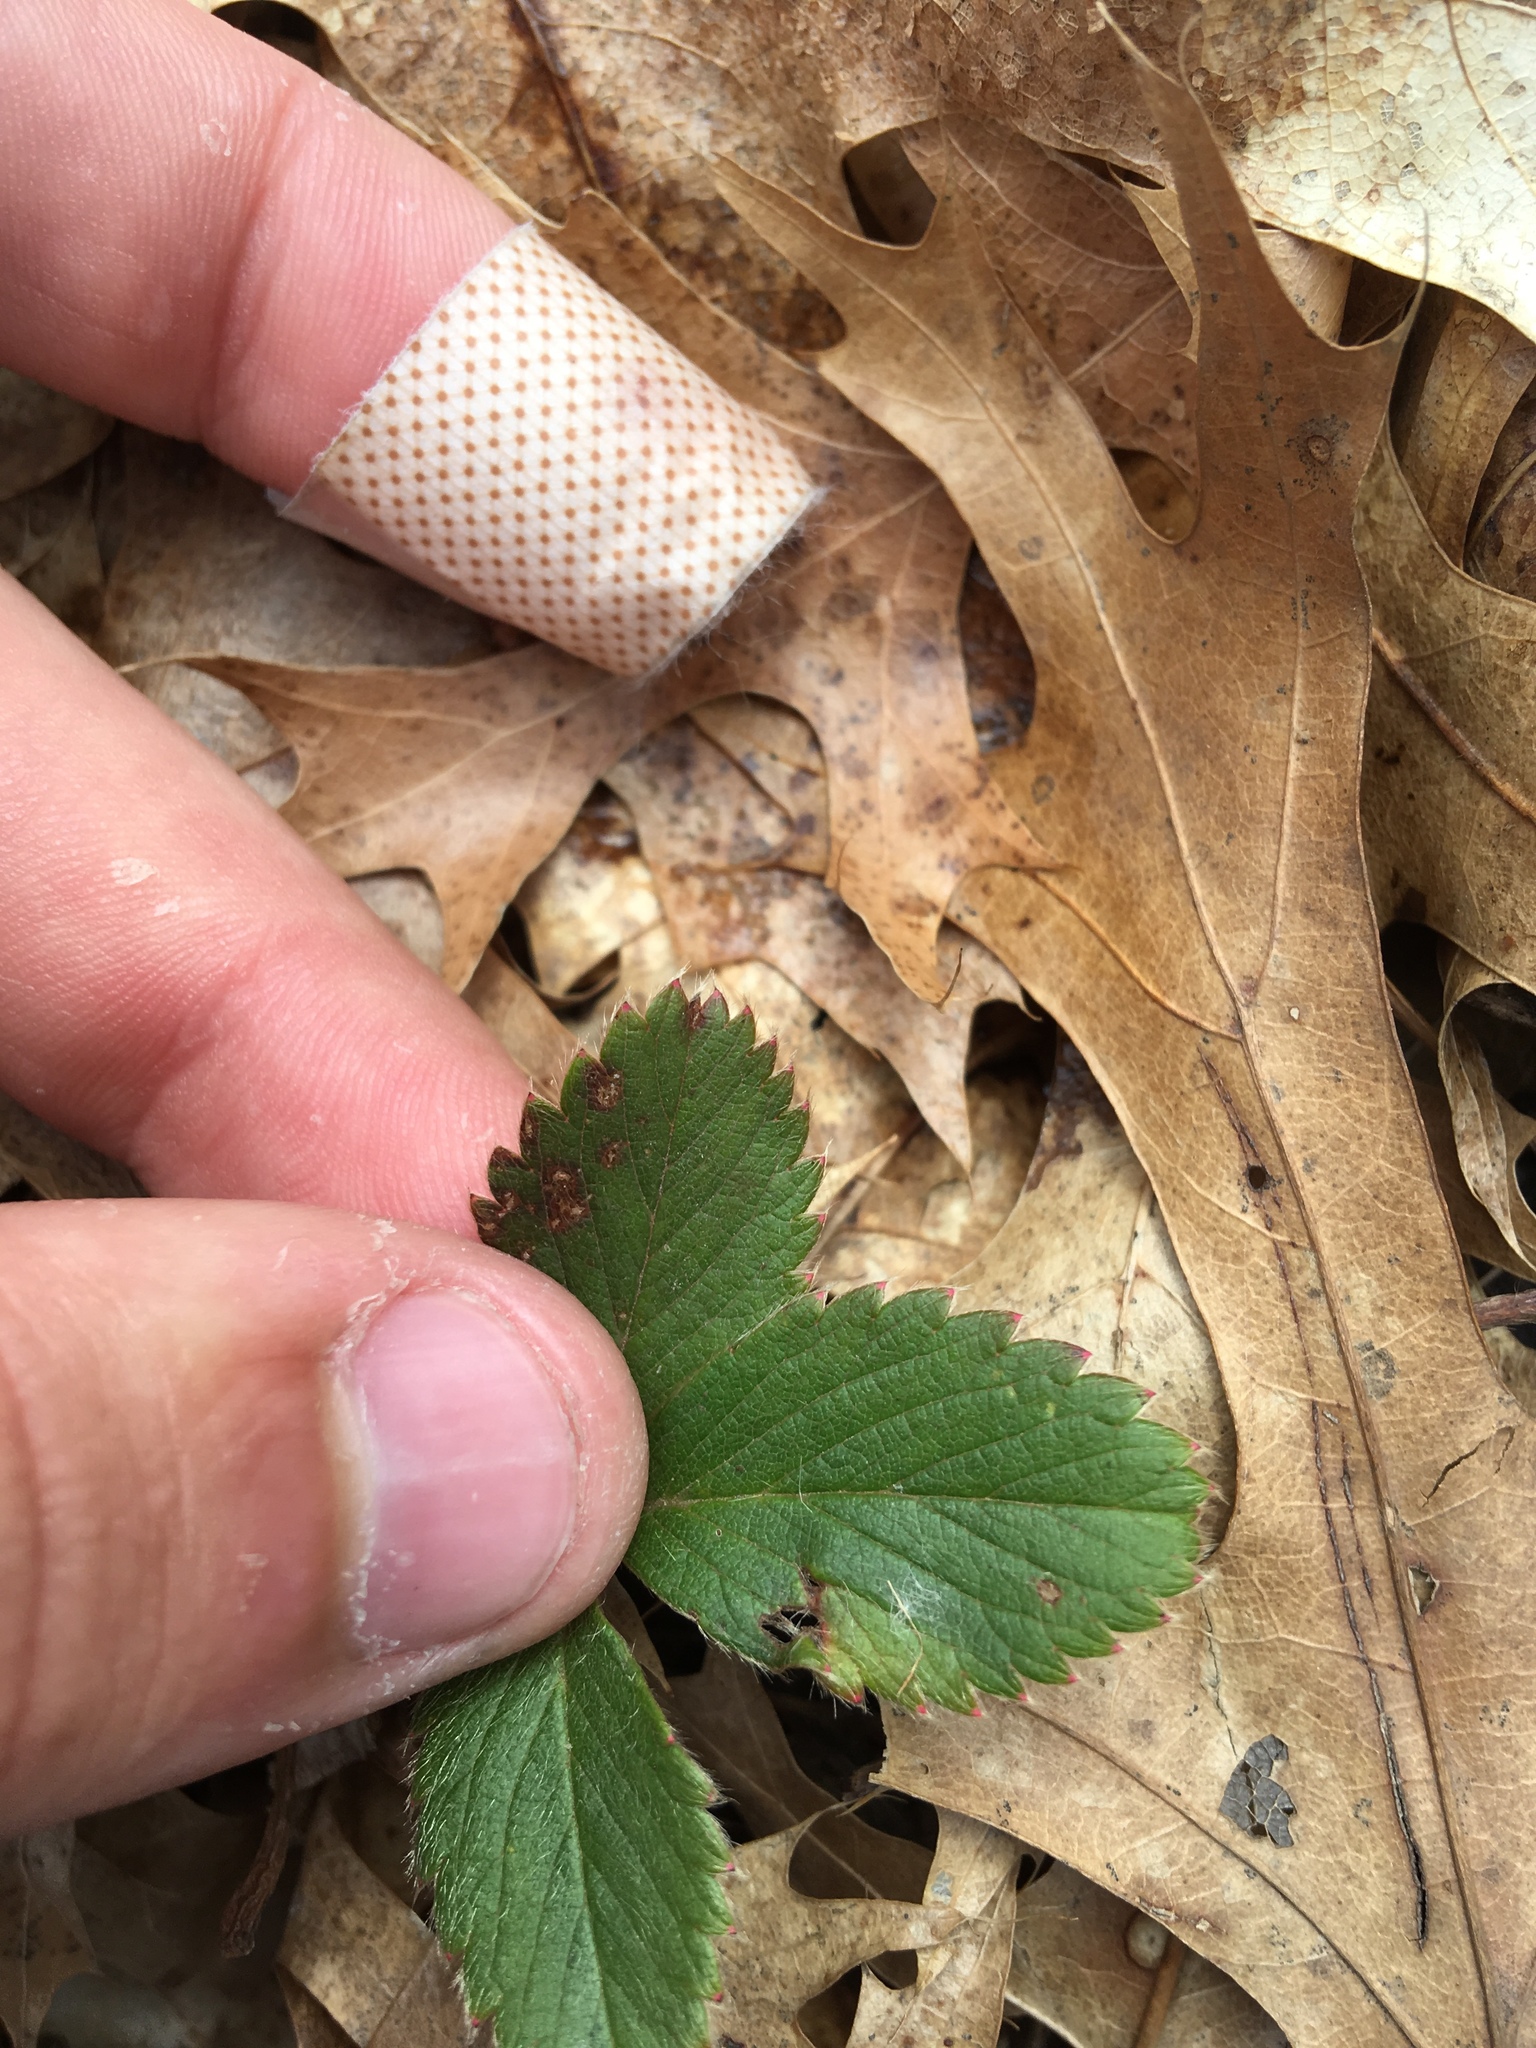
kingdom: Plantae
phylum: Tracheophyta
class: Magnoliopsida
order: Rosales
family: Rosaceae
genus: Fragaria
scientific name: Fragaria virginiana
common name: Thickleaved wild strawberry
